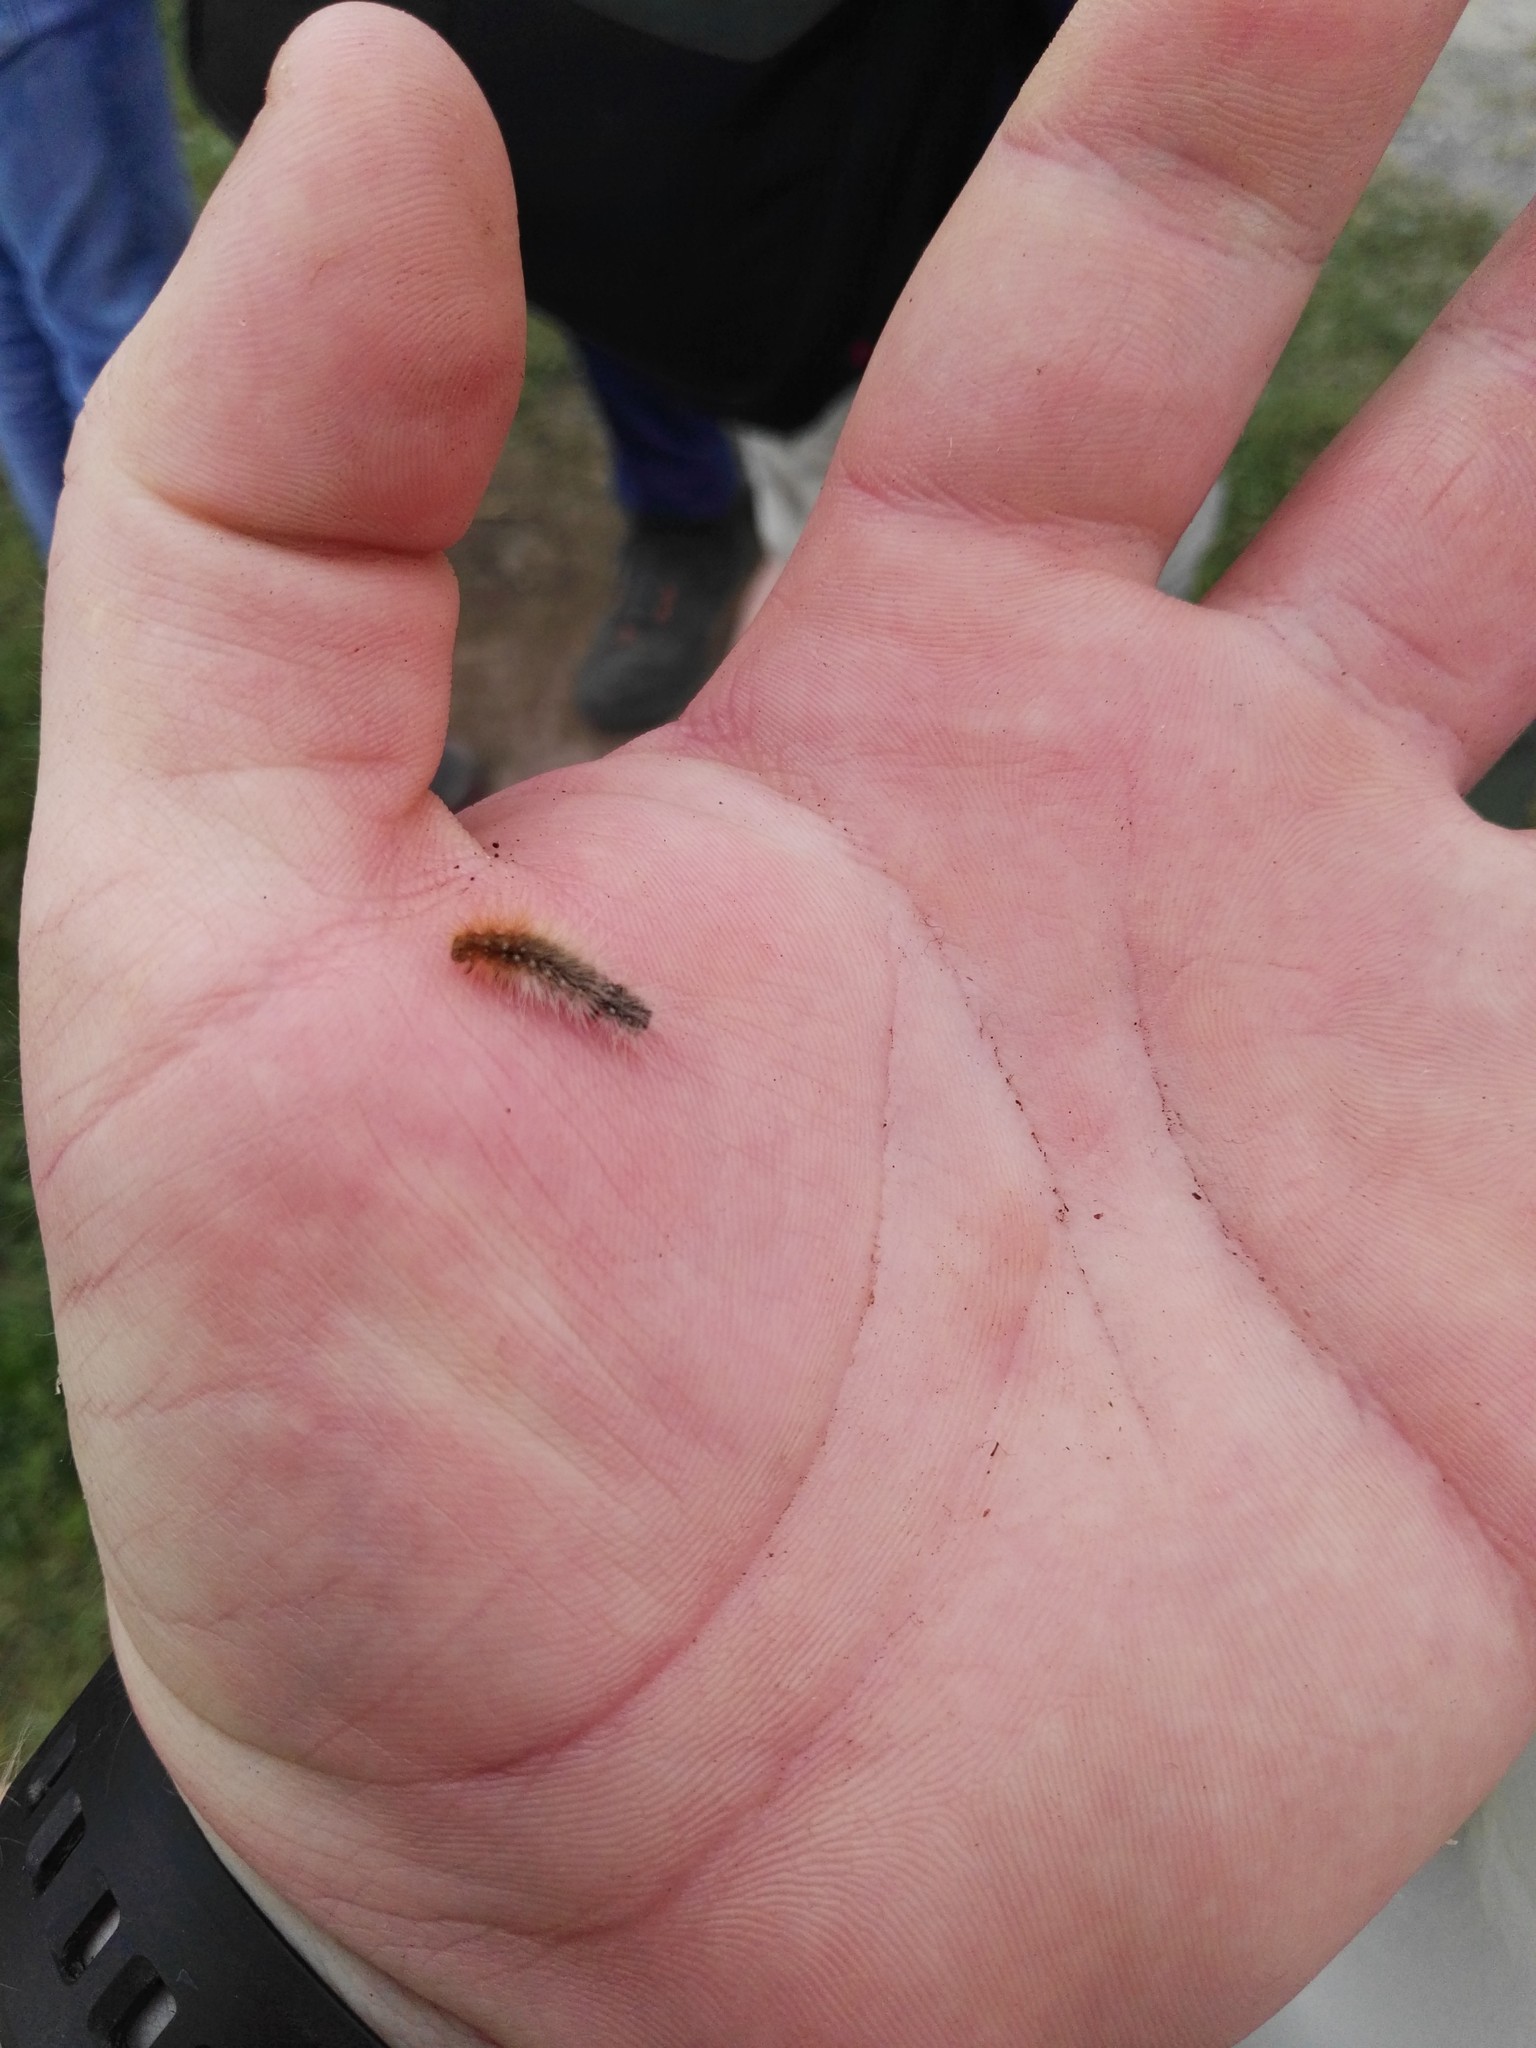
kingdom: Animalia
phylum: Arthropoda
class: Insecta
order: Lepidoptera
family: Erebidae
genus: Arctia
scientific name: Arctia caja
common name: Garden tiger
